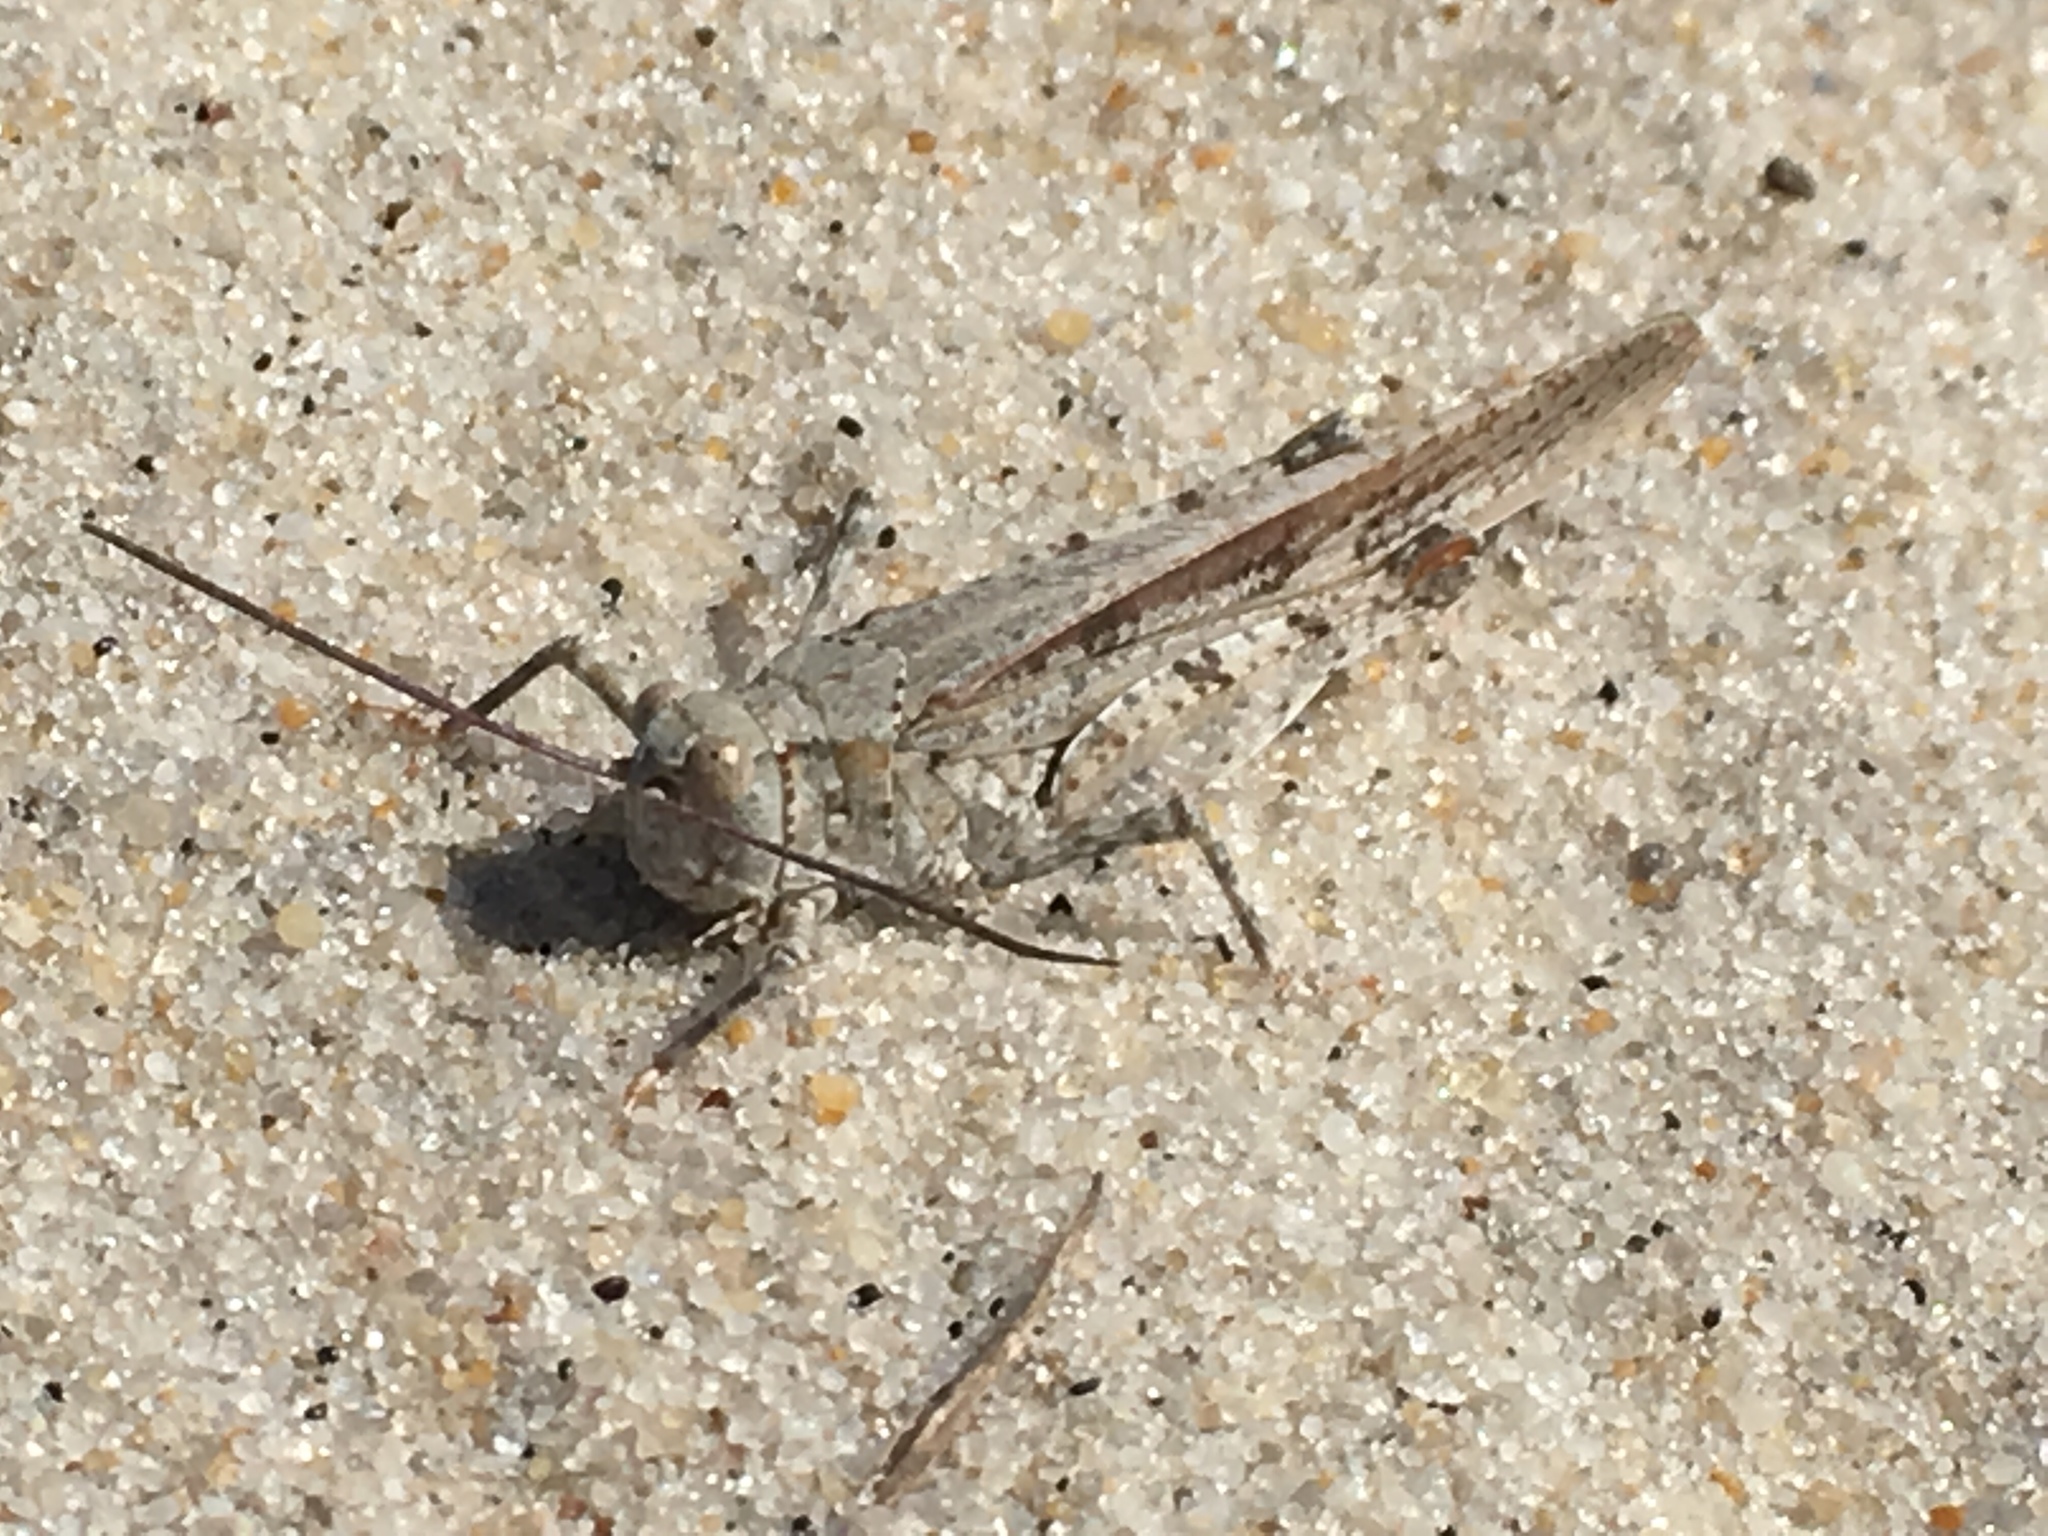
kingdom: Animalia
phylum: Arthropoda
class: Insecta
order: Orthoptera
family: Acrididae
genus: Trimerotropis
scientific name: Trimerotropis maritima
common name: Seaside locust
